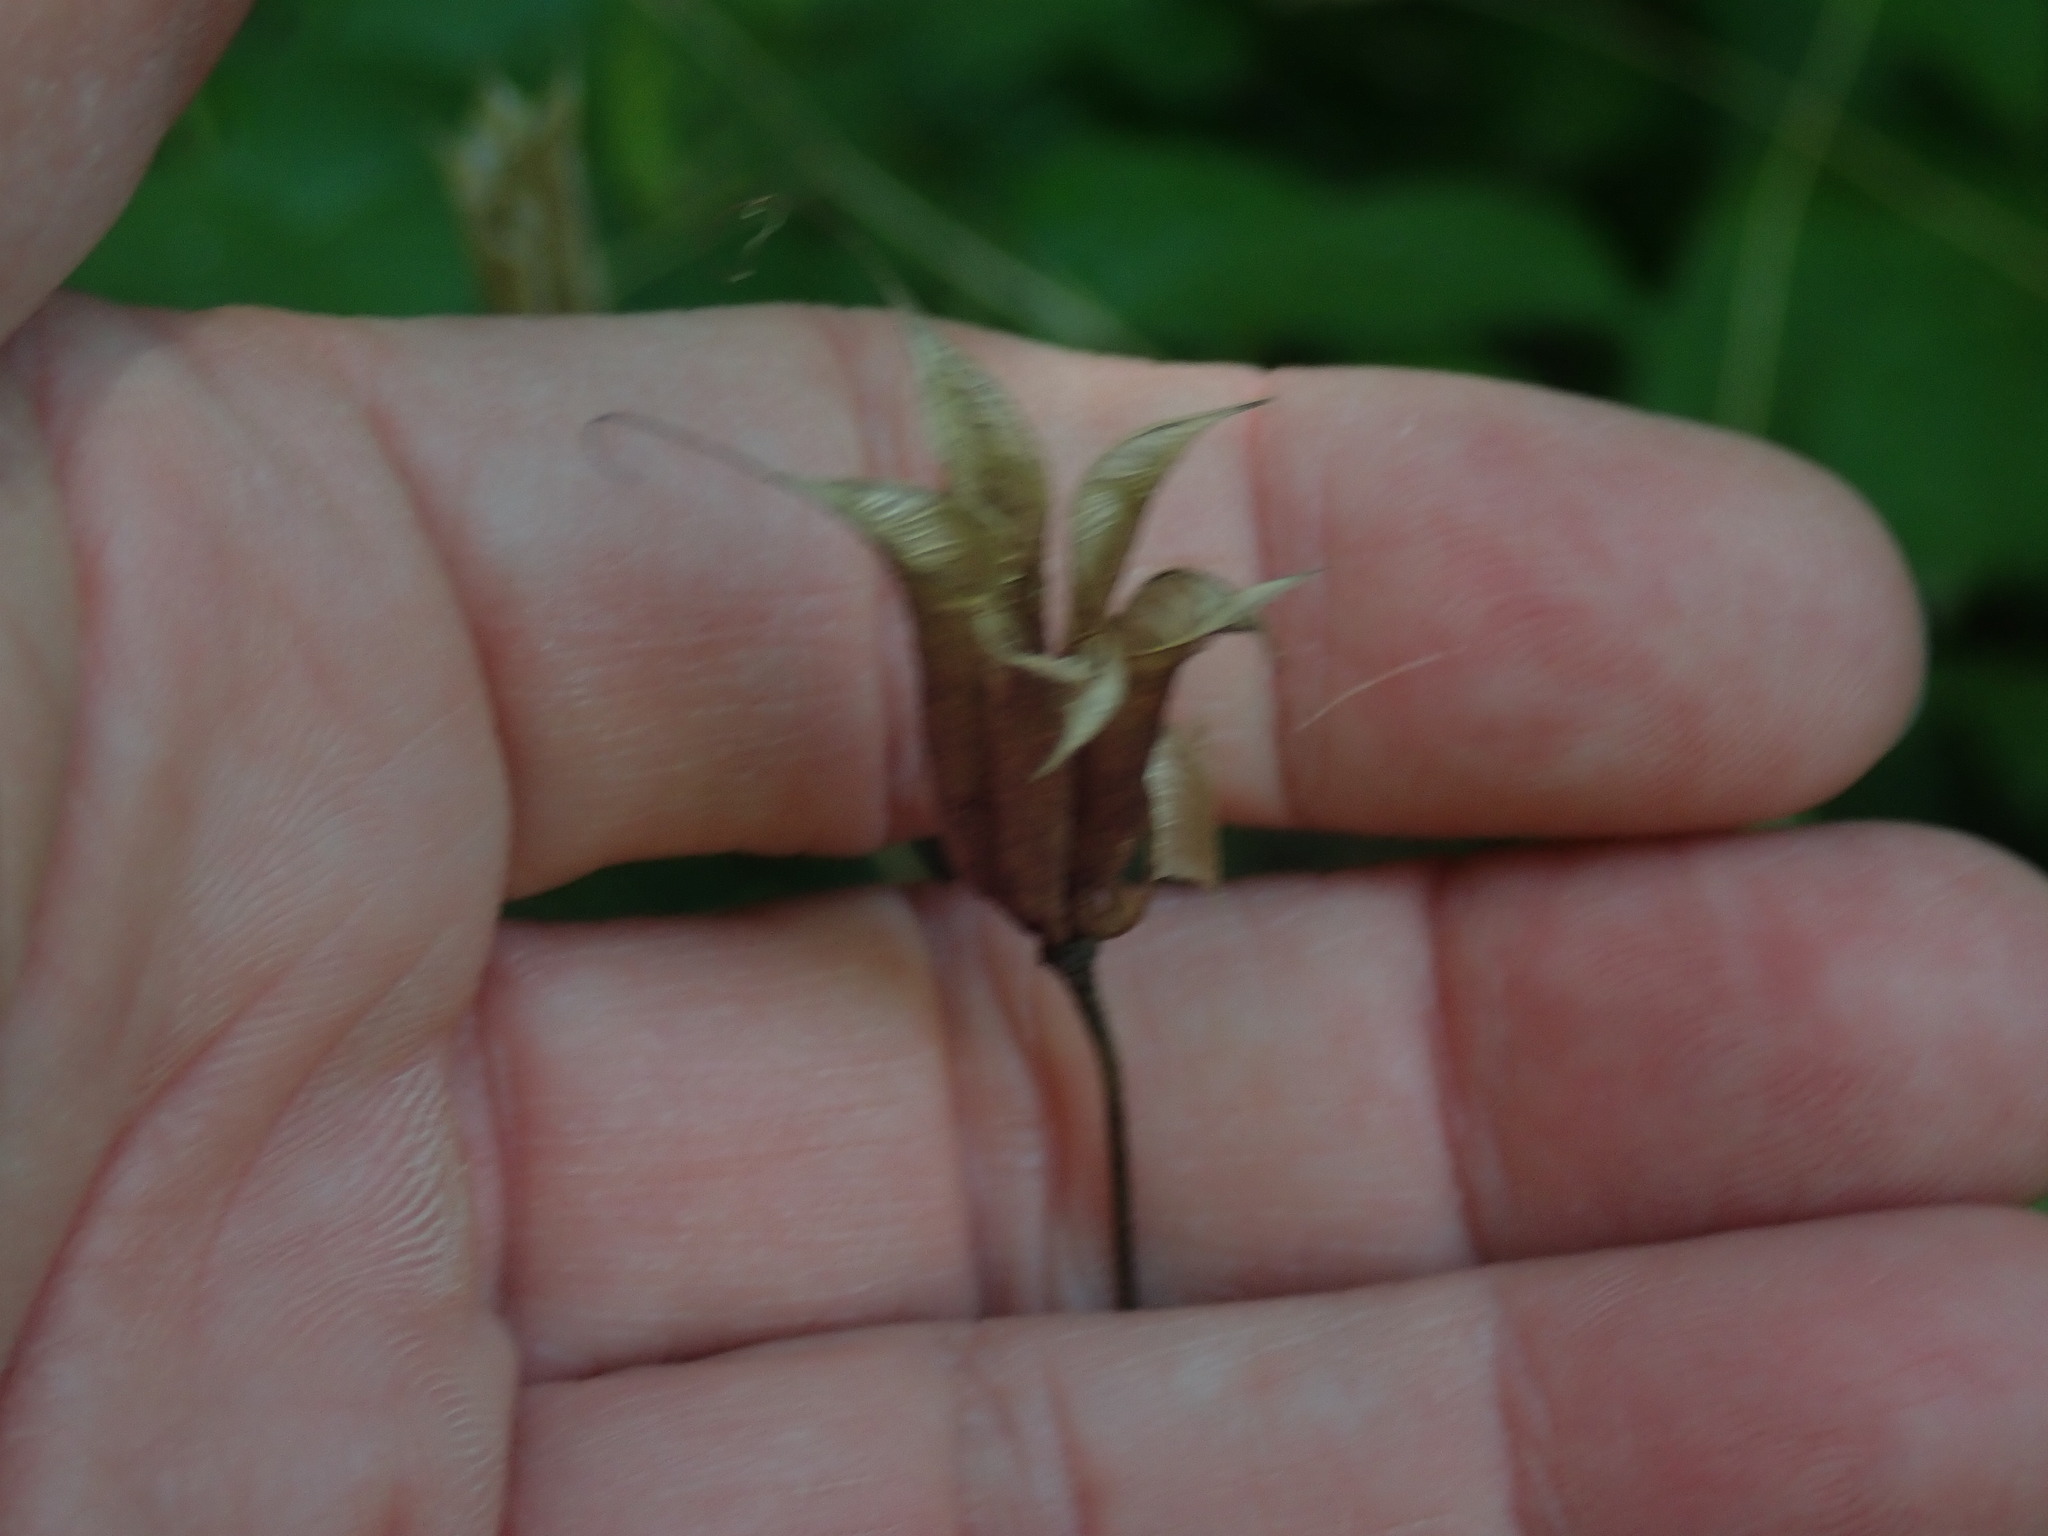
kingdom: Plantae
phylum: Tracheophyta
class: Magnoliopsida
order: Ranunculales
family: Ranunculaceae
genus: Aquilegia
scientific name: Aquilegia canadensis
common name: American columbine
